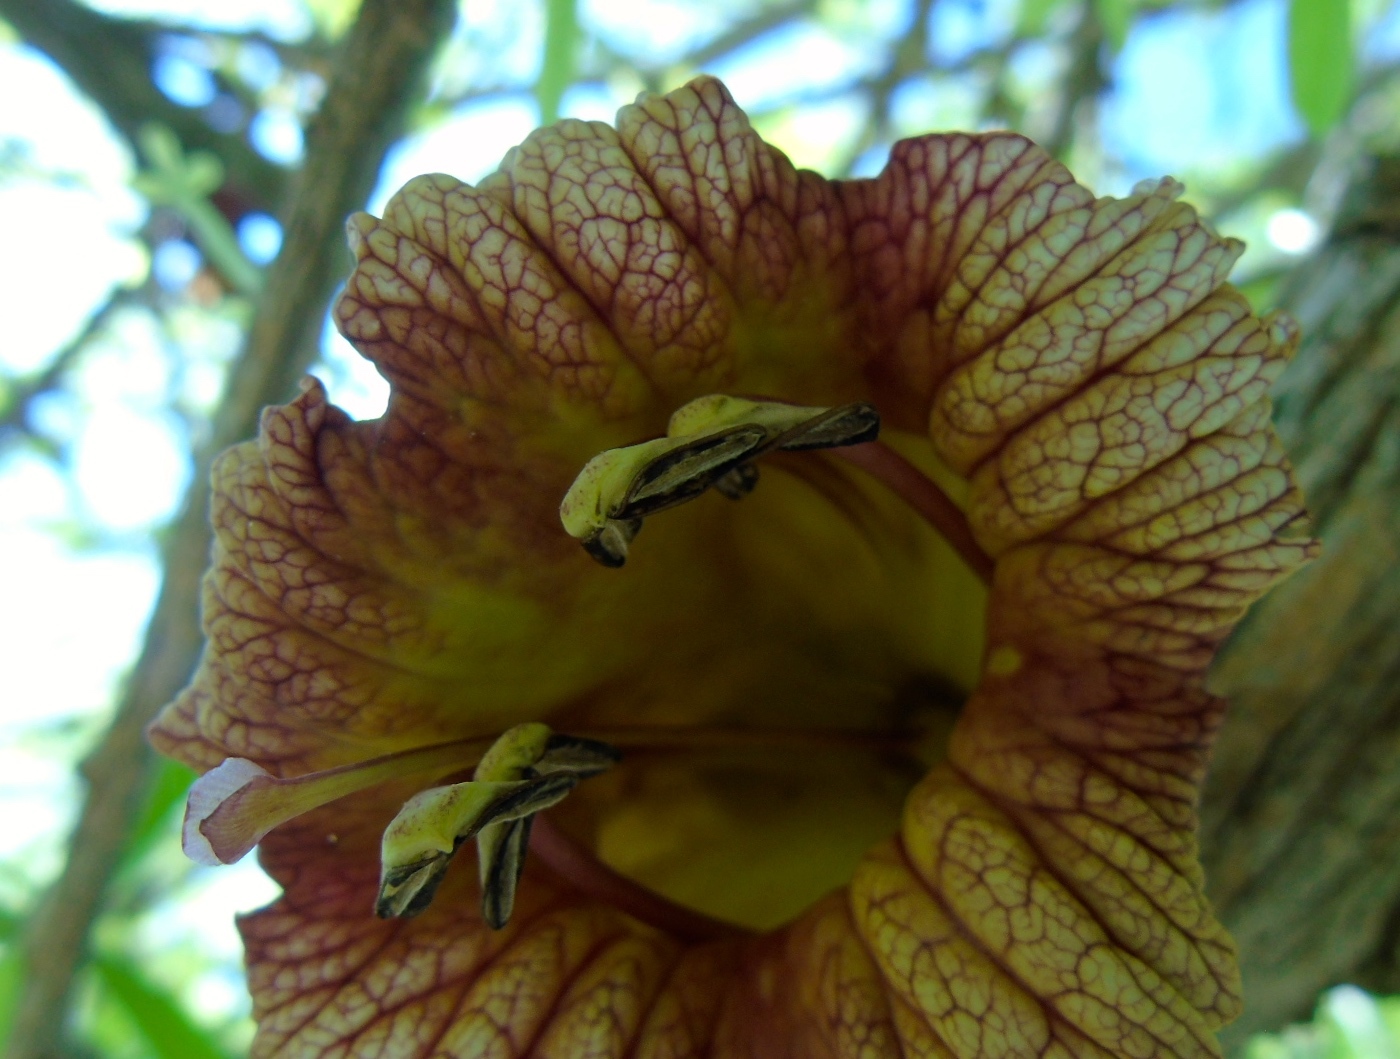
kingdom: Plantae
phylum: Tracheophyta
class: Magnoliopsida
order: Lamiales
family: Bignoniaceae
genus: Crescentia
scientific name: Crescentia alata
